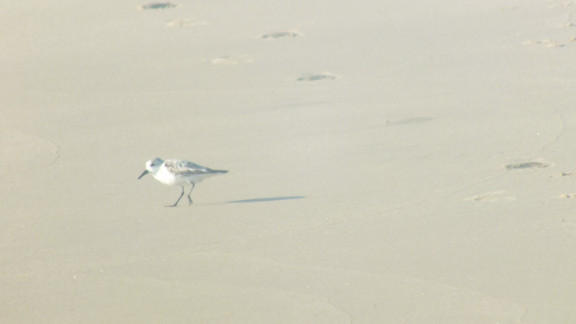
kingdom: Animalia
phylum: Chordata
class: Aves
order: Charadriiformes
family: Scolopacidae
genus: Calidris
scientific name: Calidris alba
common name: Sanderling
